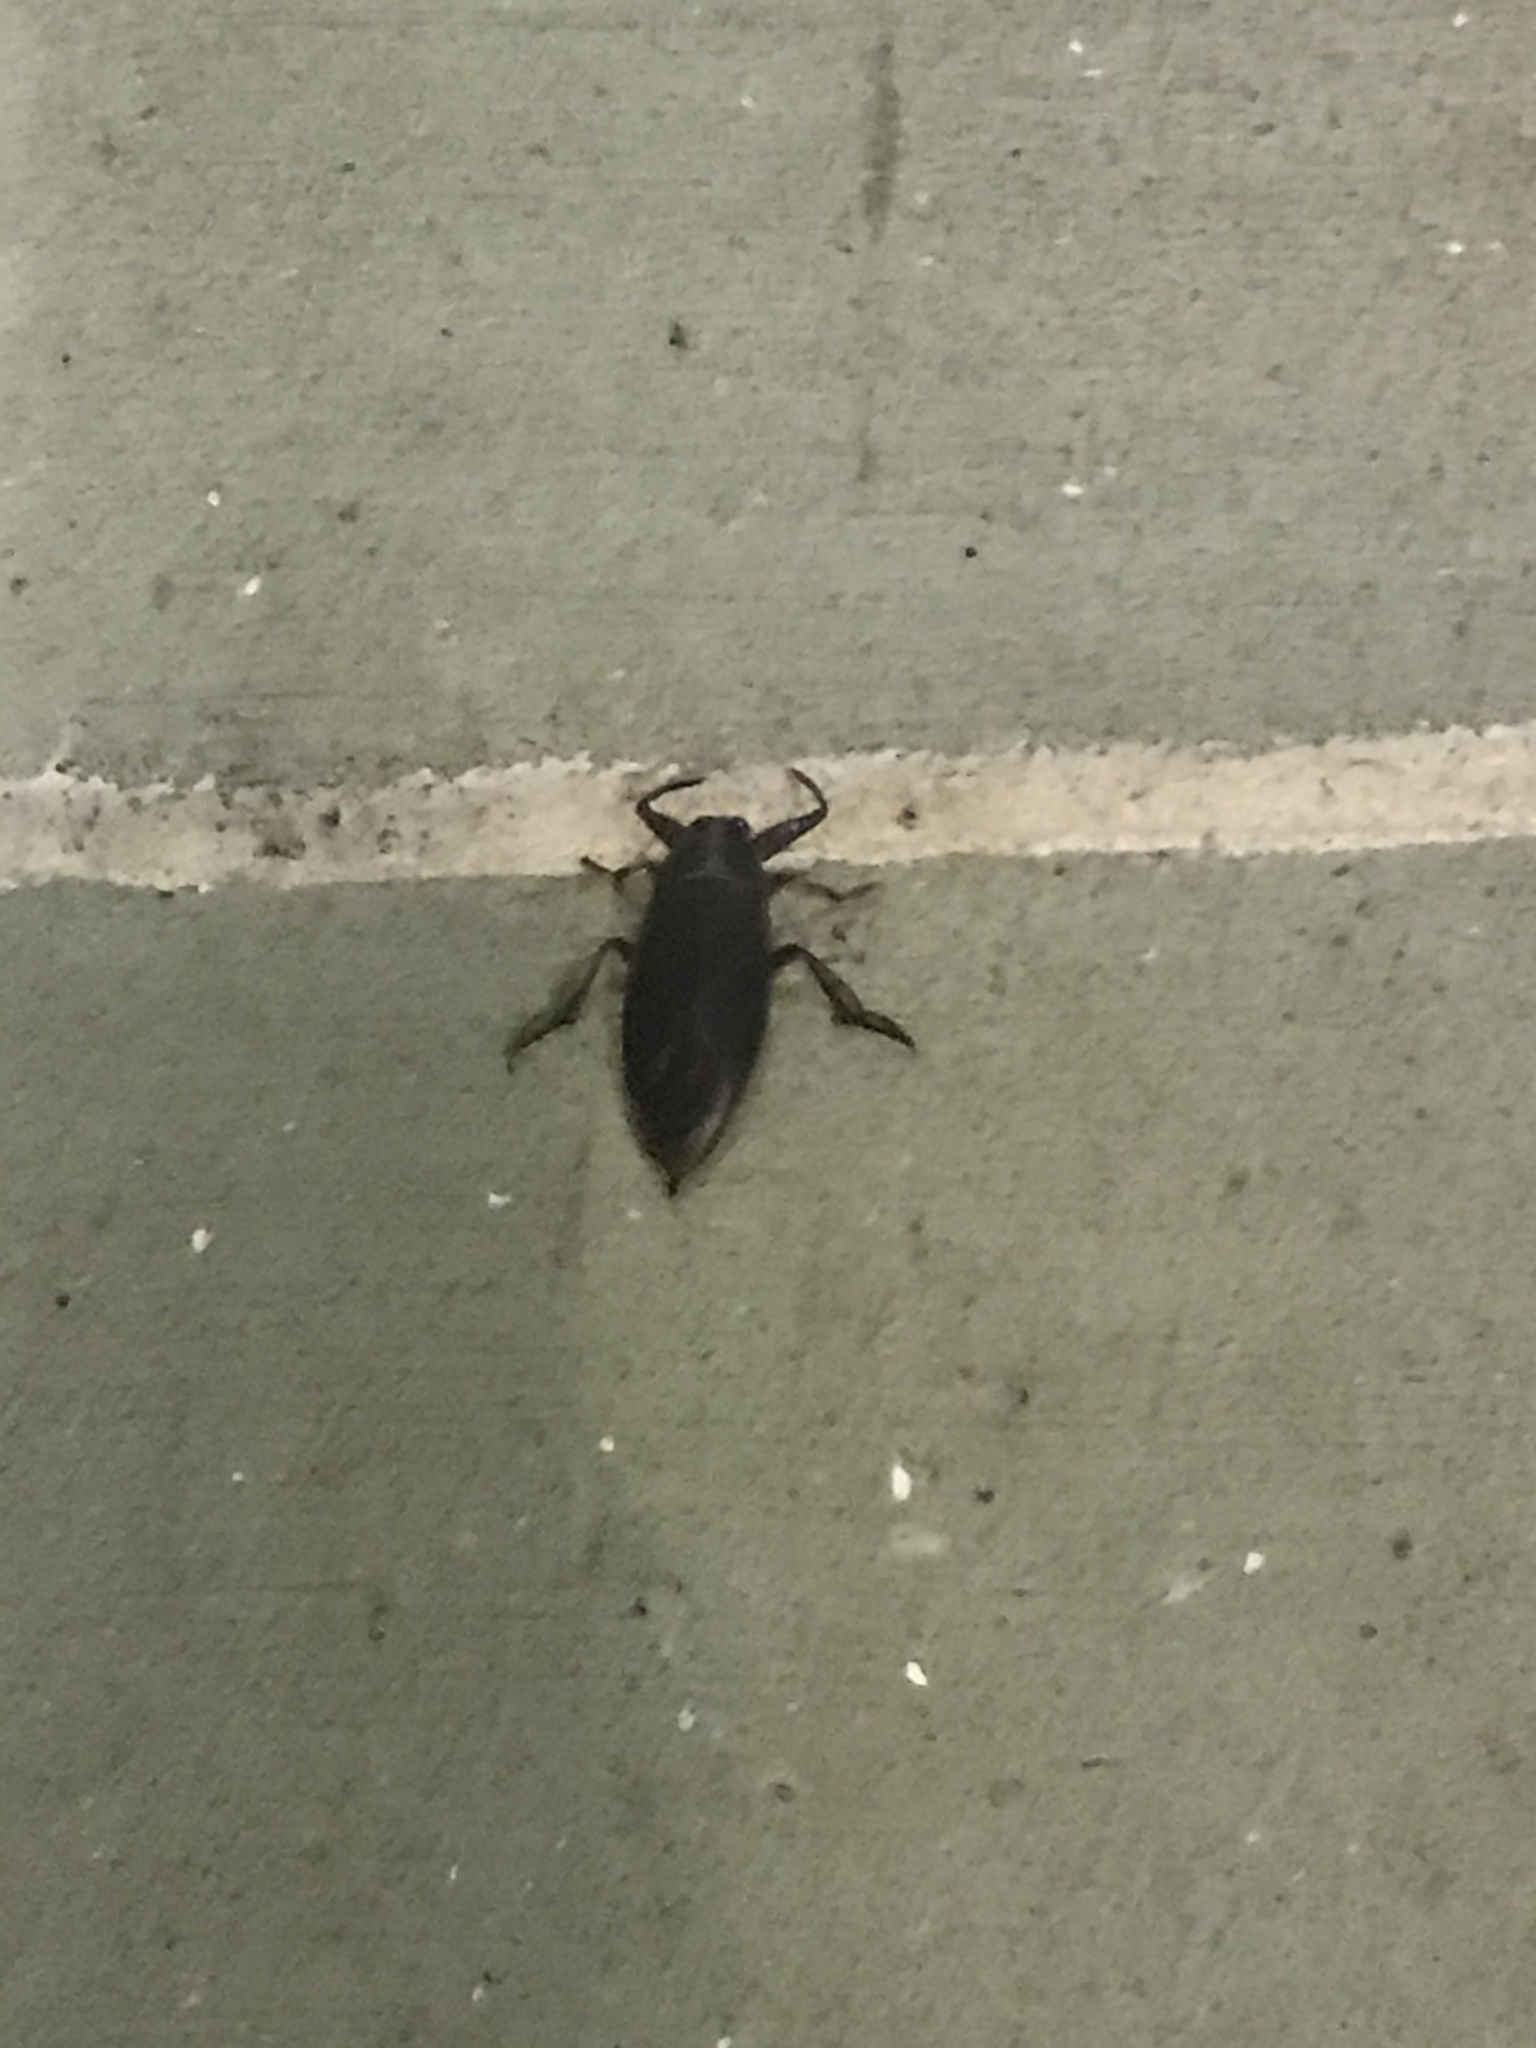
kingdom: Animalia
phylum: Arthropoda
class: Insecta
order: Hemiptera
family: Belostomatidae
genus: Benacus
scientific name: Benacus griseus
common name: Eastern toe-biter
